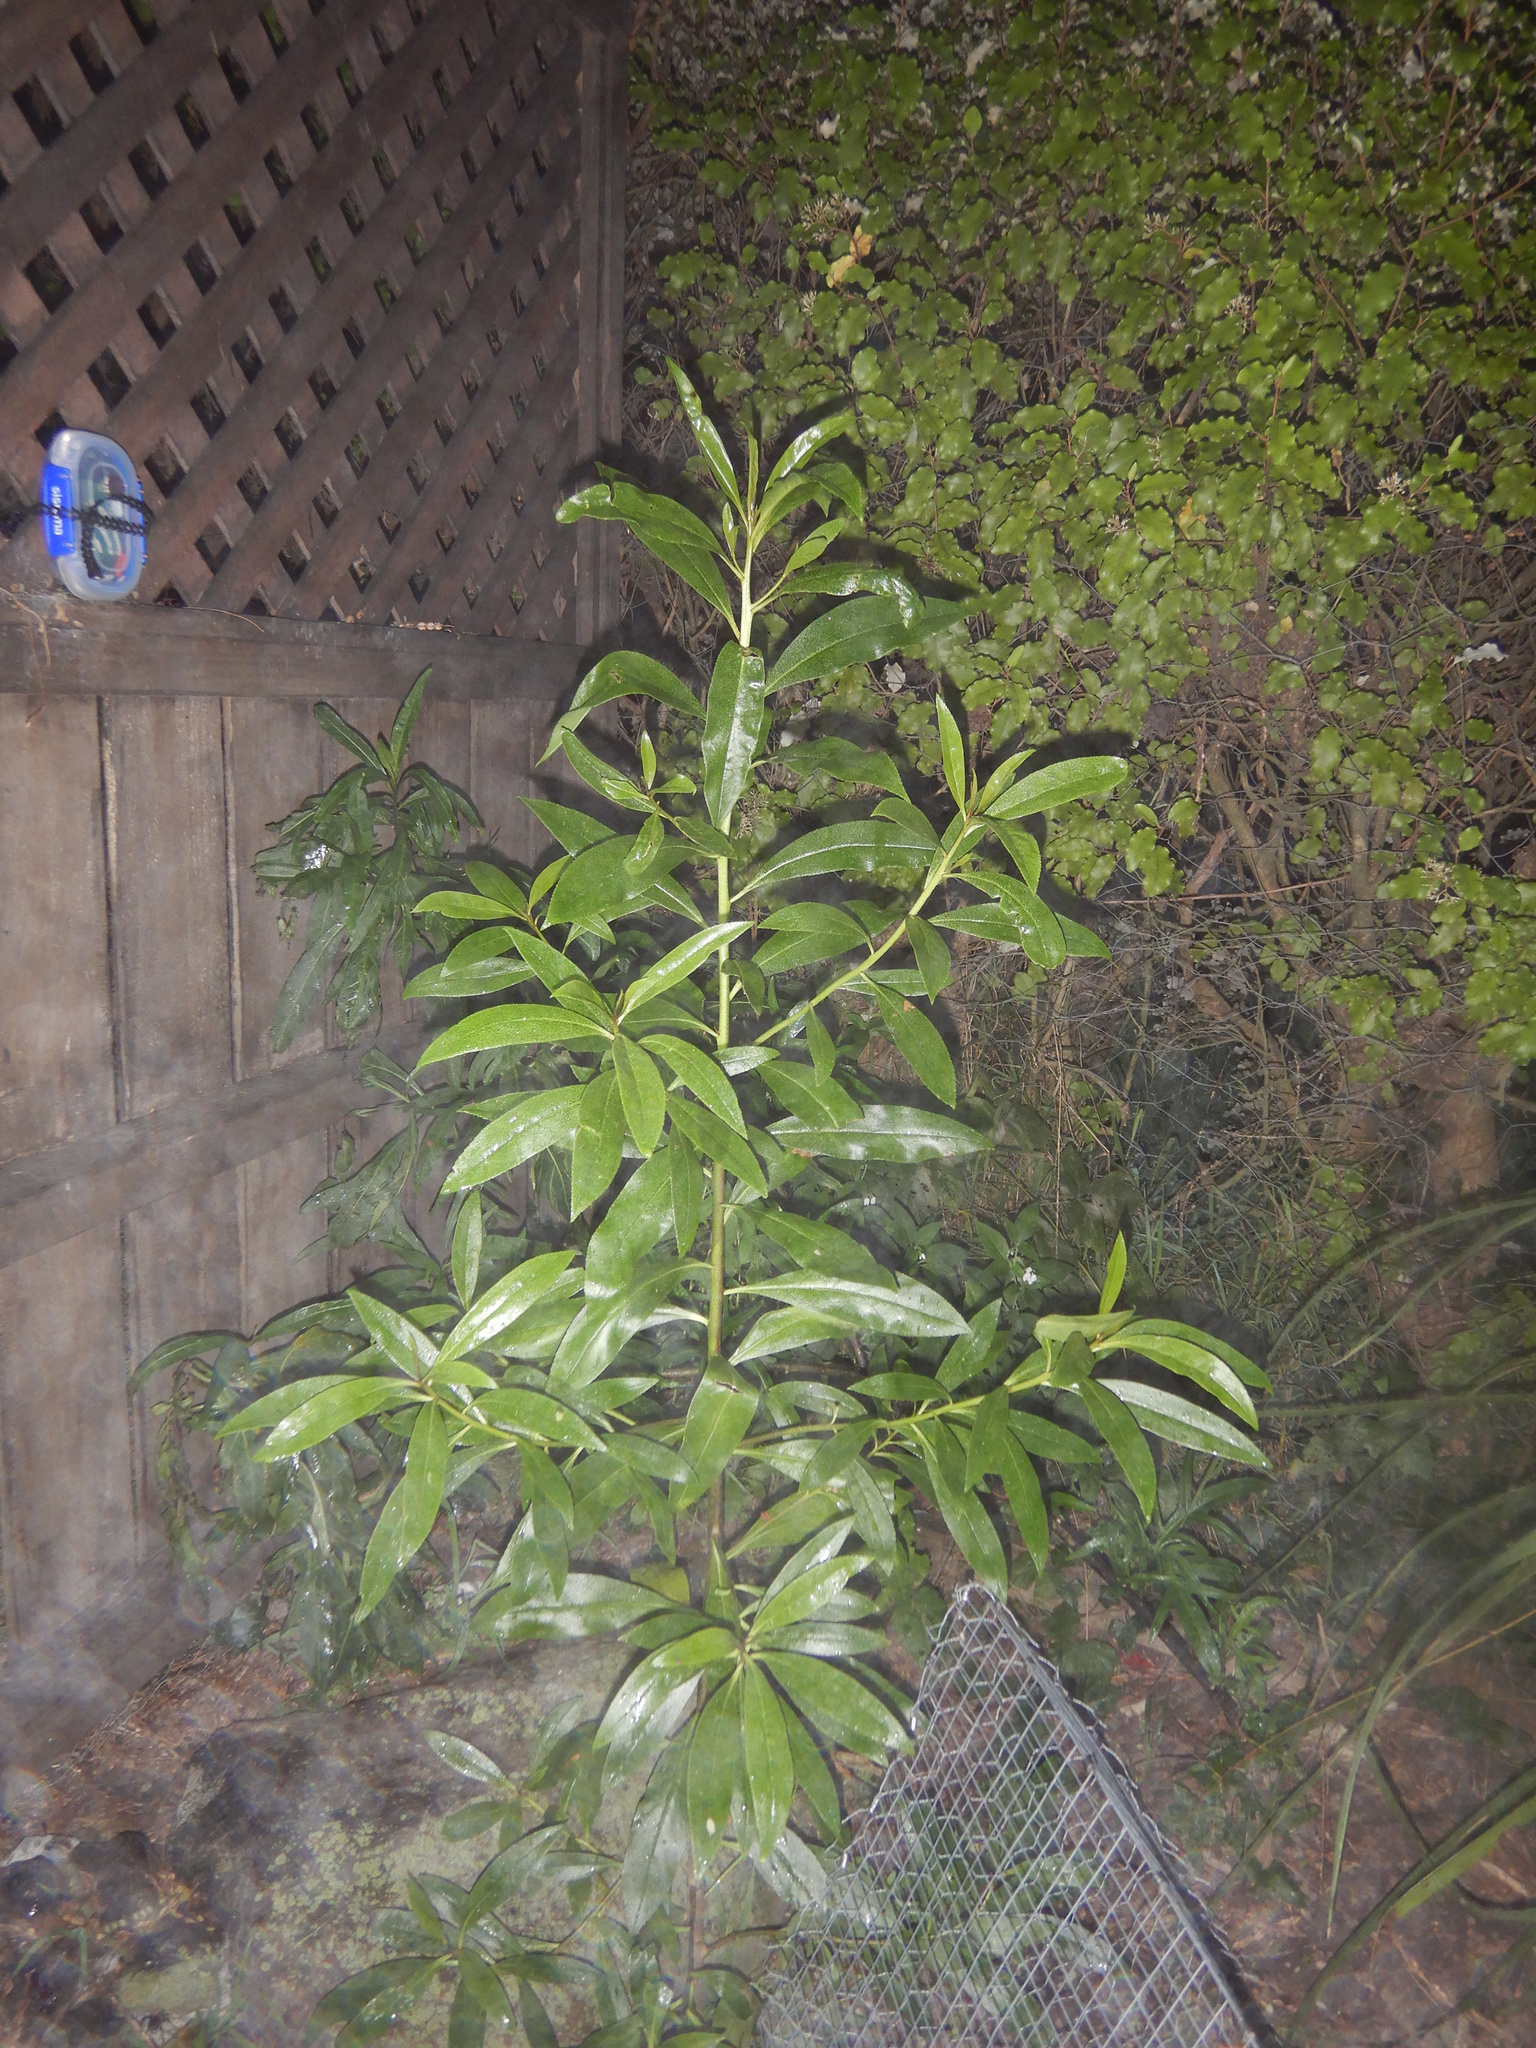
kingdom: Plantae
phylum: Tracheophyta
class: Magnoliopsida
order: Lamiales
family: Scrophulariaceae
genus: Myoporum
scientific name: Myoporum laetum
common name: Ngaio tree
